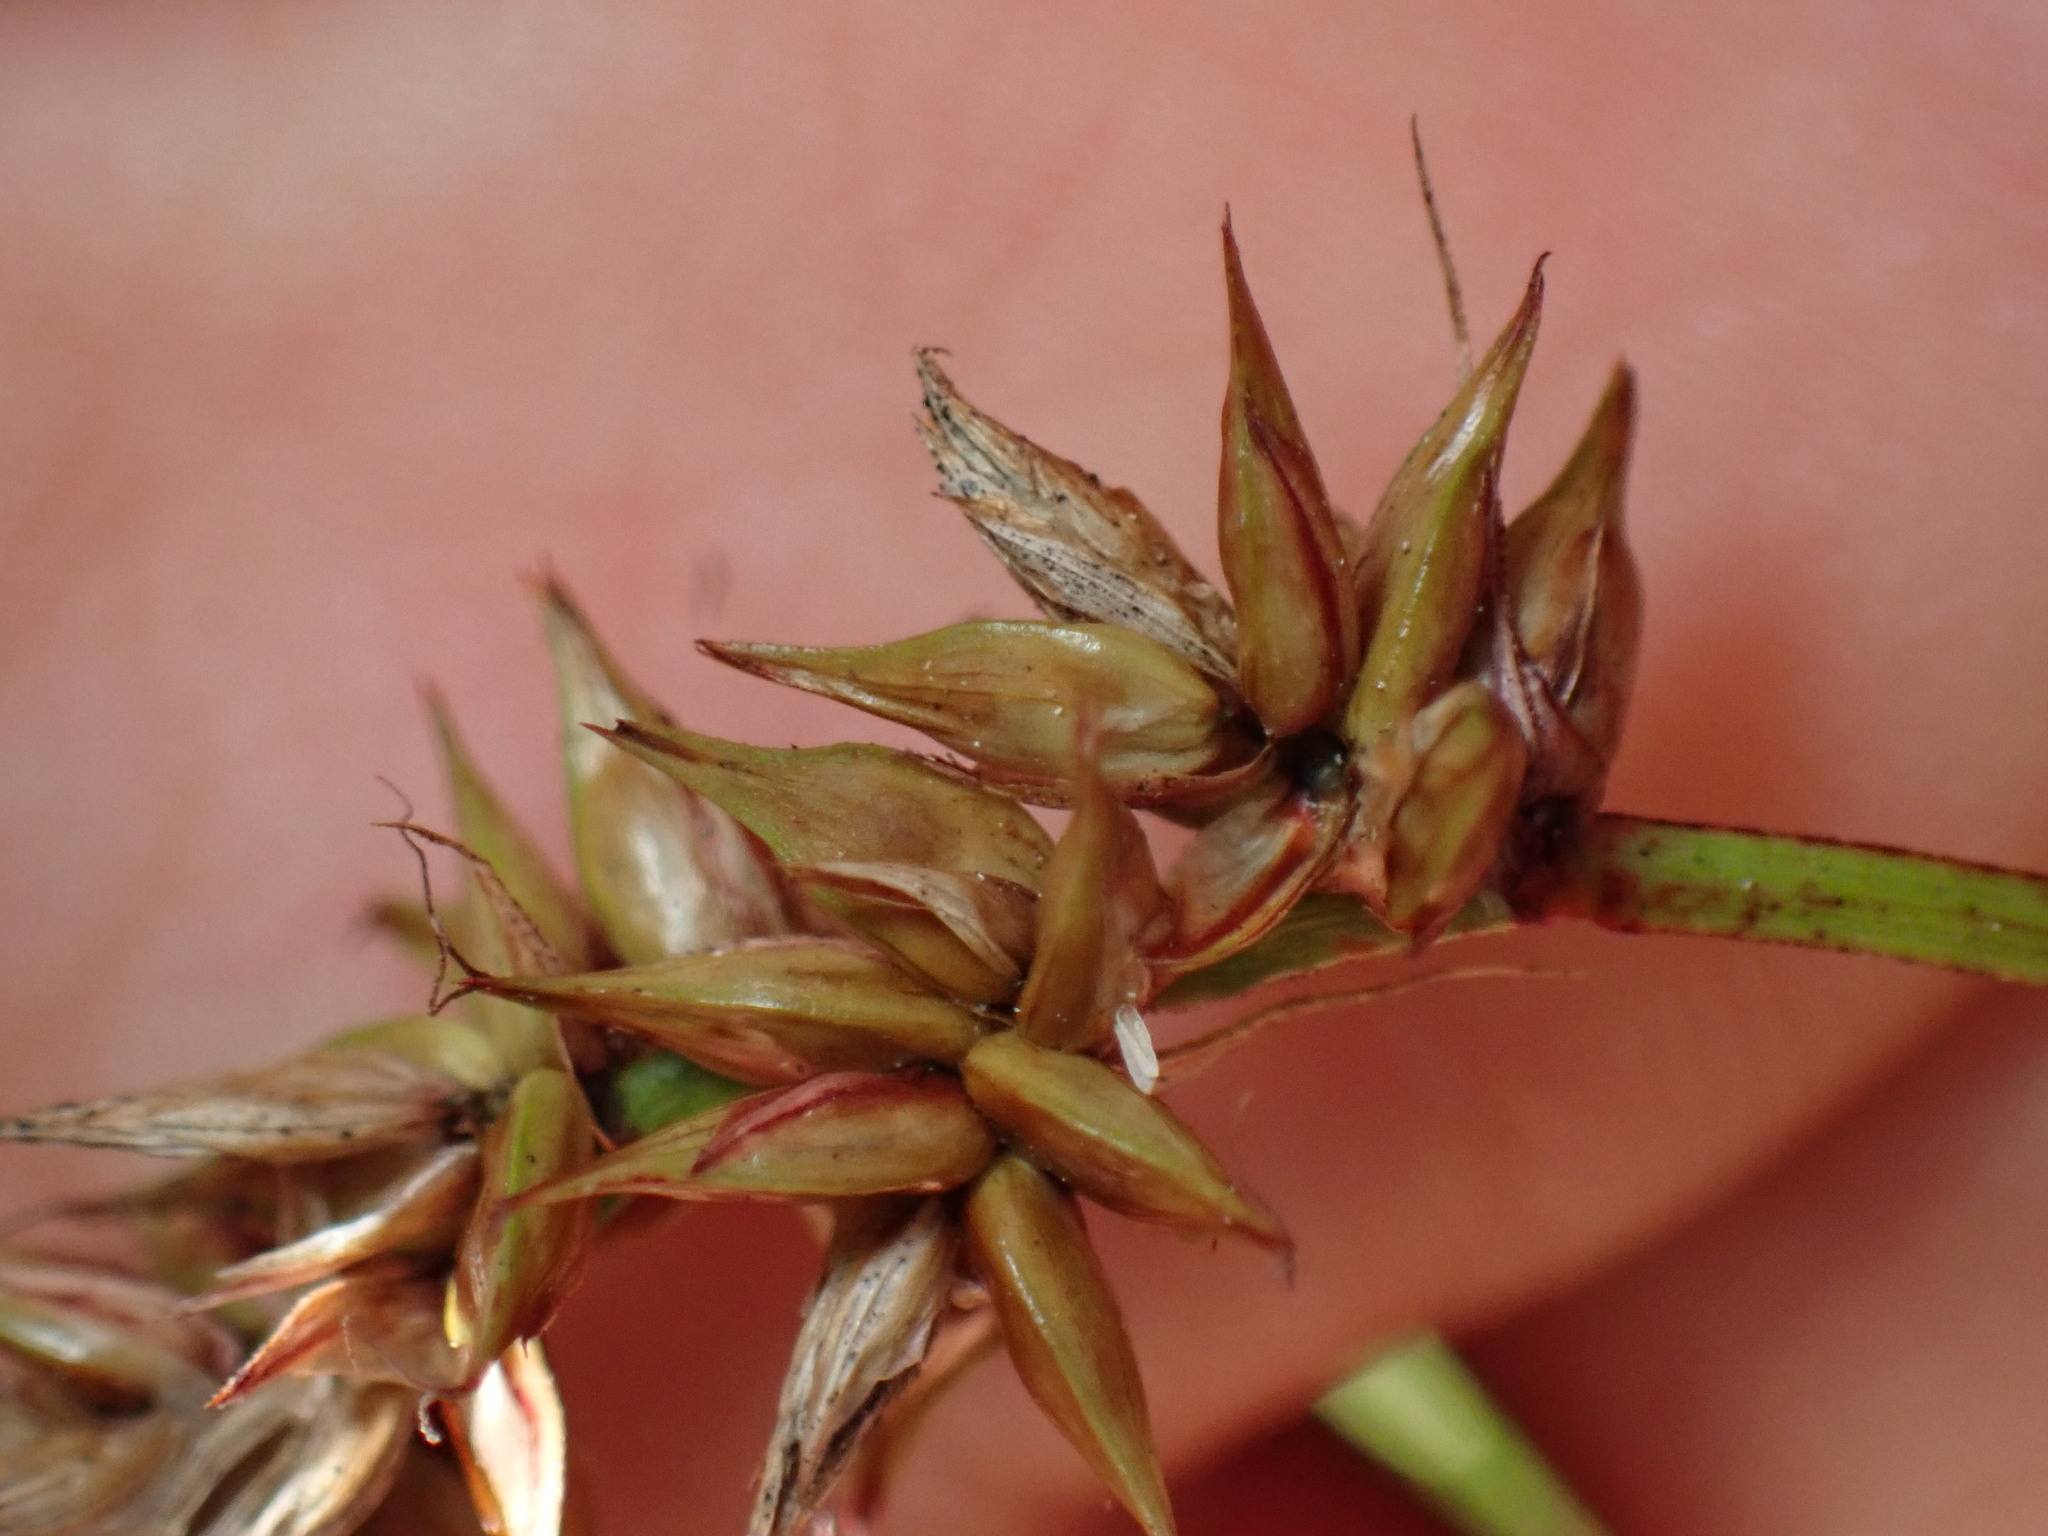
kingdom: Plantae
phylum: Tracheophyta
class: Liliopsida
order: Poales
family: Cyperaceae
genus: Carex
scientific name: Carex spicata
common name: Spiked sedge
